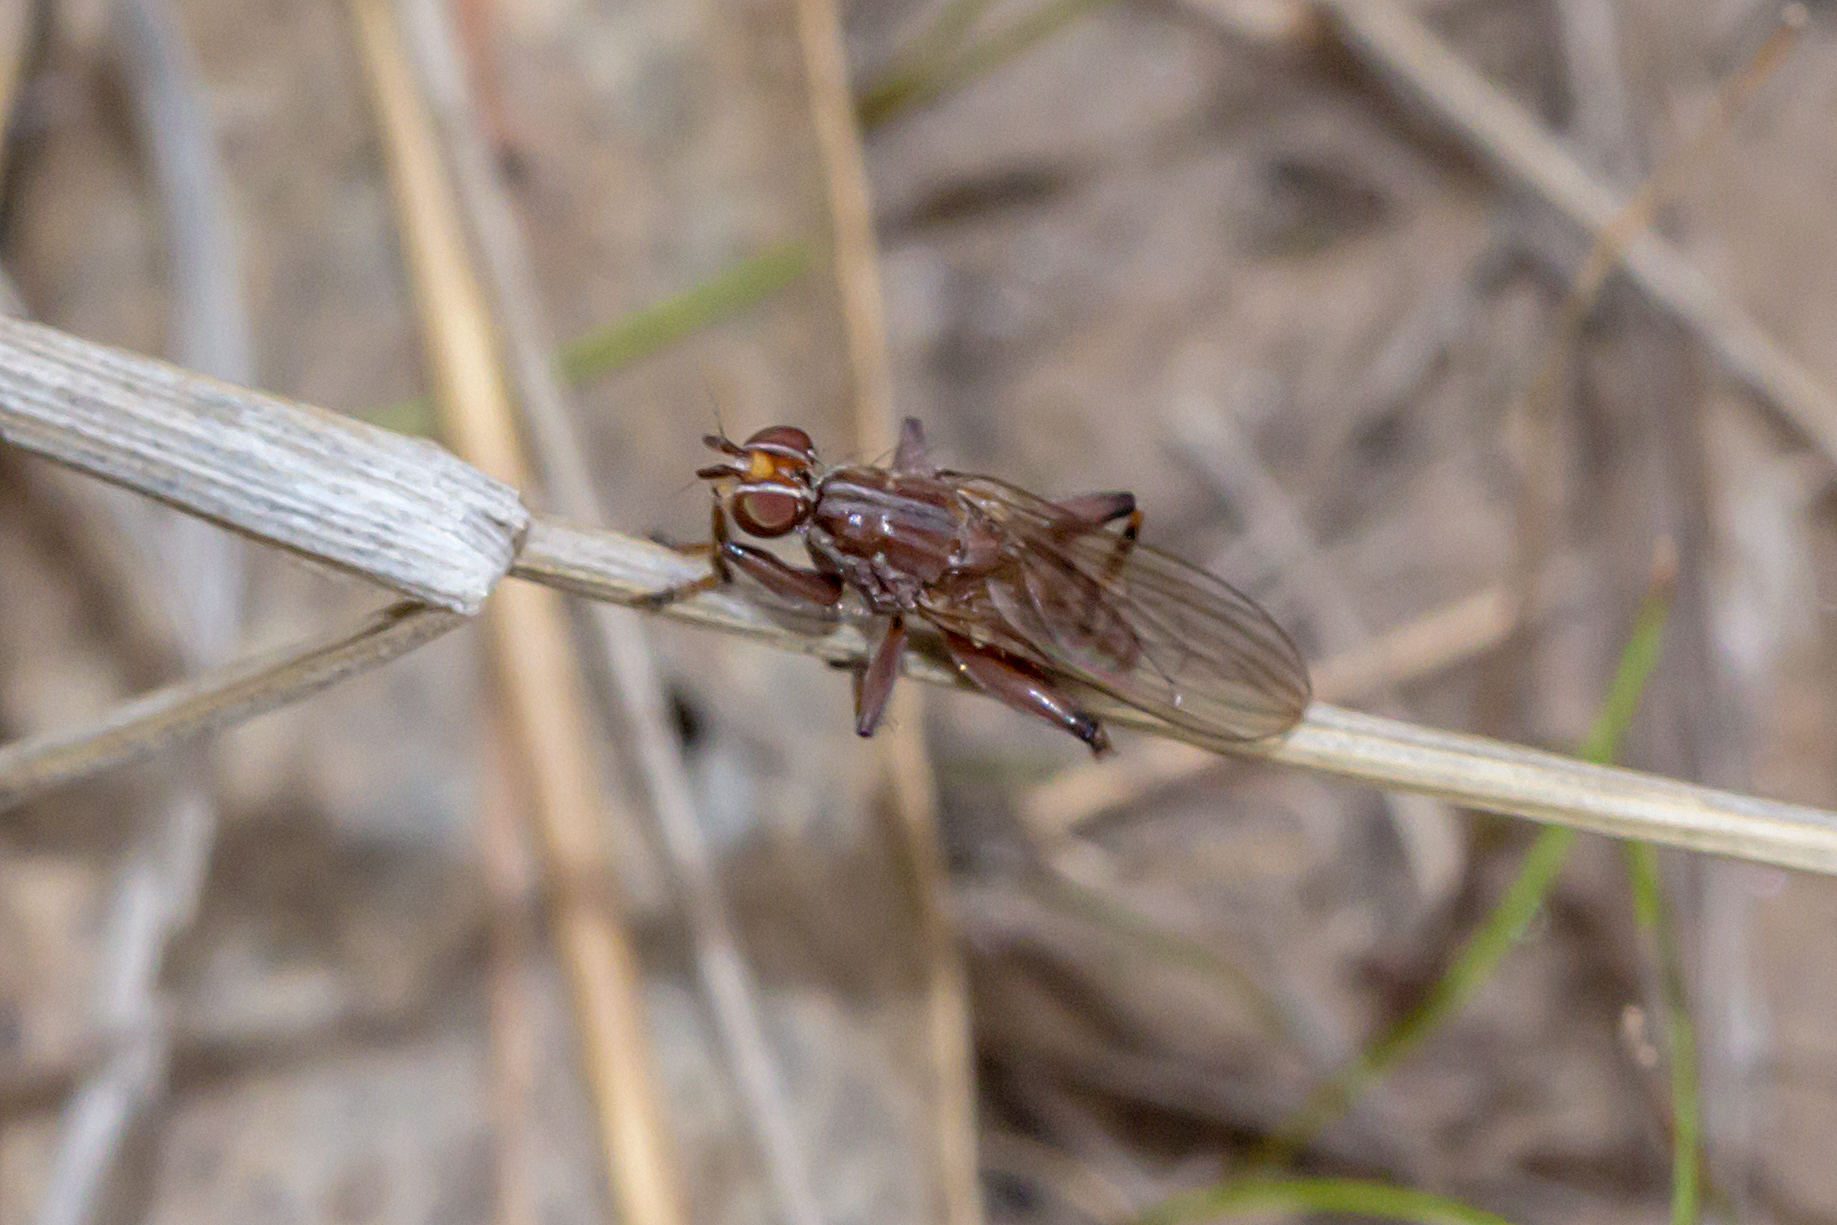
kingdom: Animalia
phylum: Arthropoda
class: Insecta
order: Diptera
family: Heleomyzidae
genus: Tapeigaster
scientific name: Tapeigaster nigricornis
